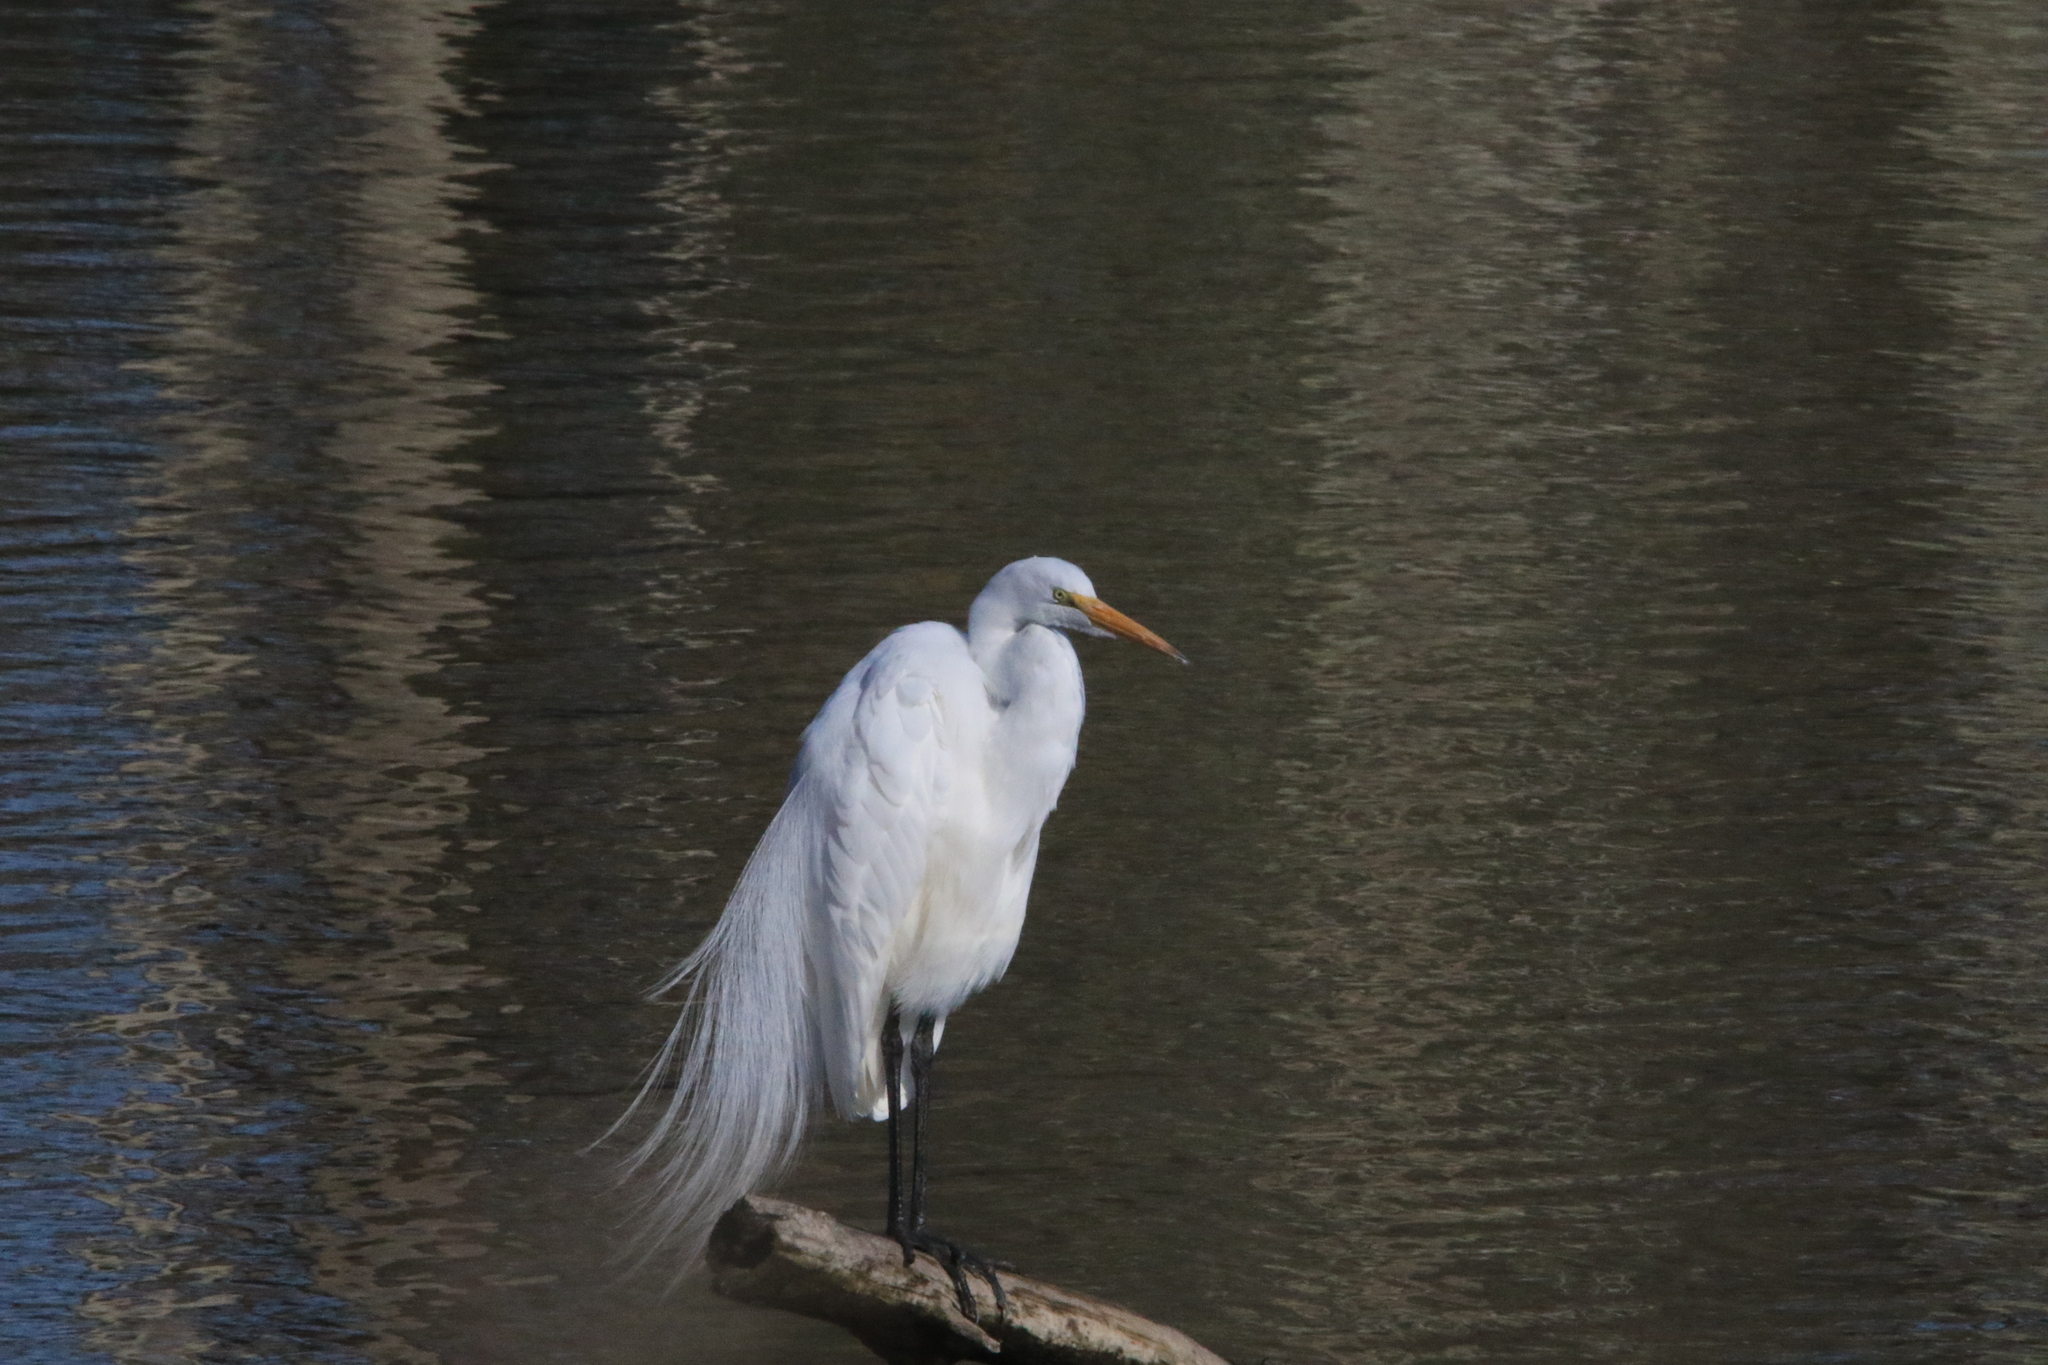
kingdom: Animalia
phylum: Chordata
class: Aves
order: Pelecaniformes
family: Ardeidae
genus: Ardea
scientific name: Ardea alba
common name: Great egret
